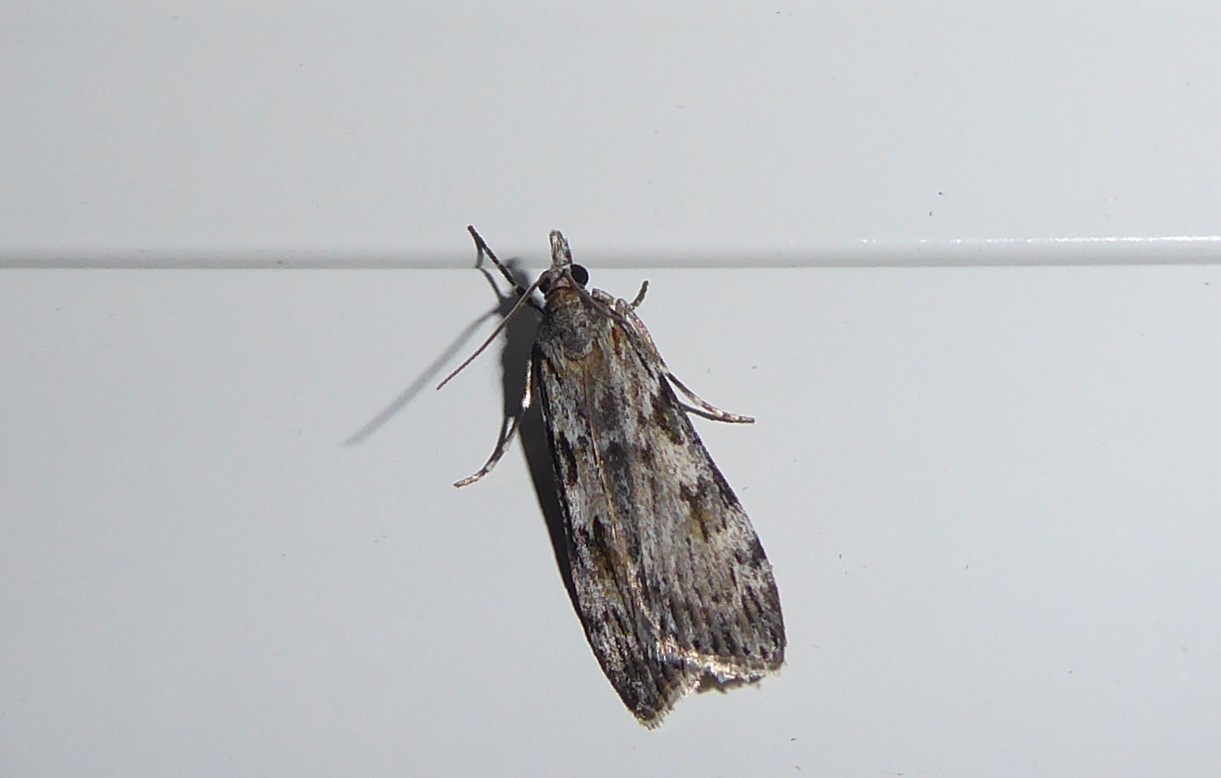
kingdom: Animalia
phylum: Arthropoda
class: Insecta
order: Lepidoptera
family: Crambidae
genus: Scoparia
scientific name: Scoparia halopis
